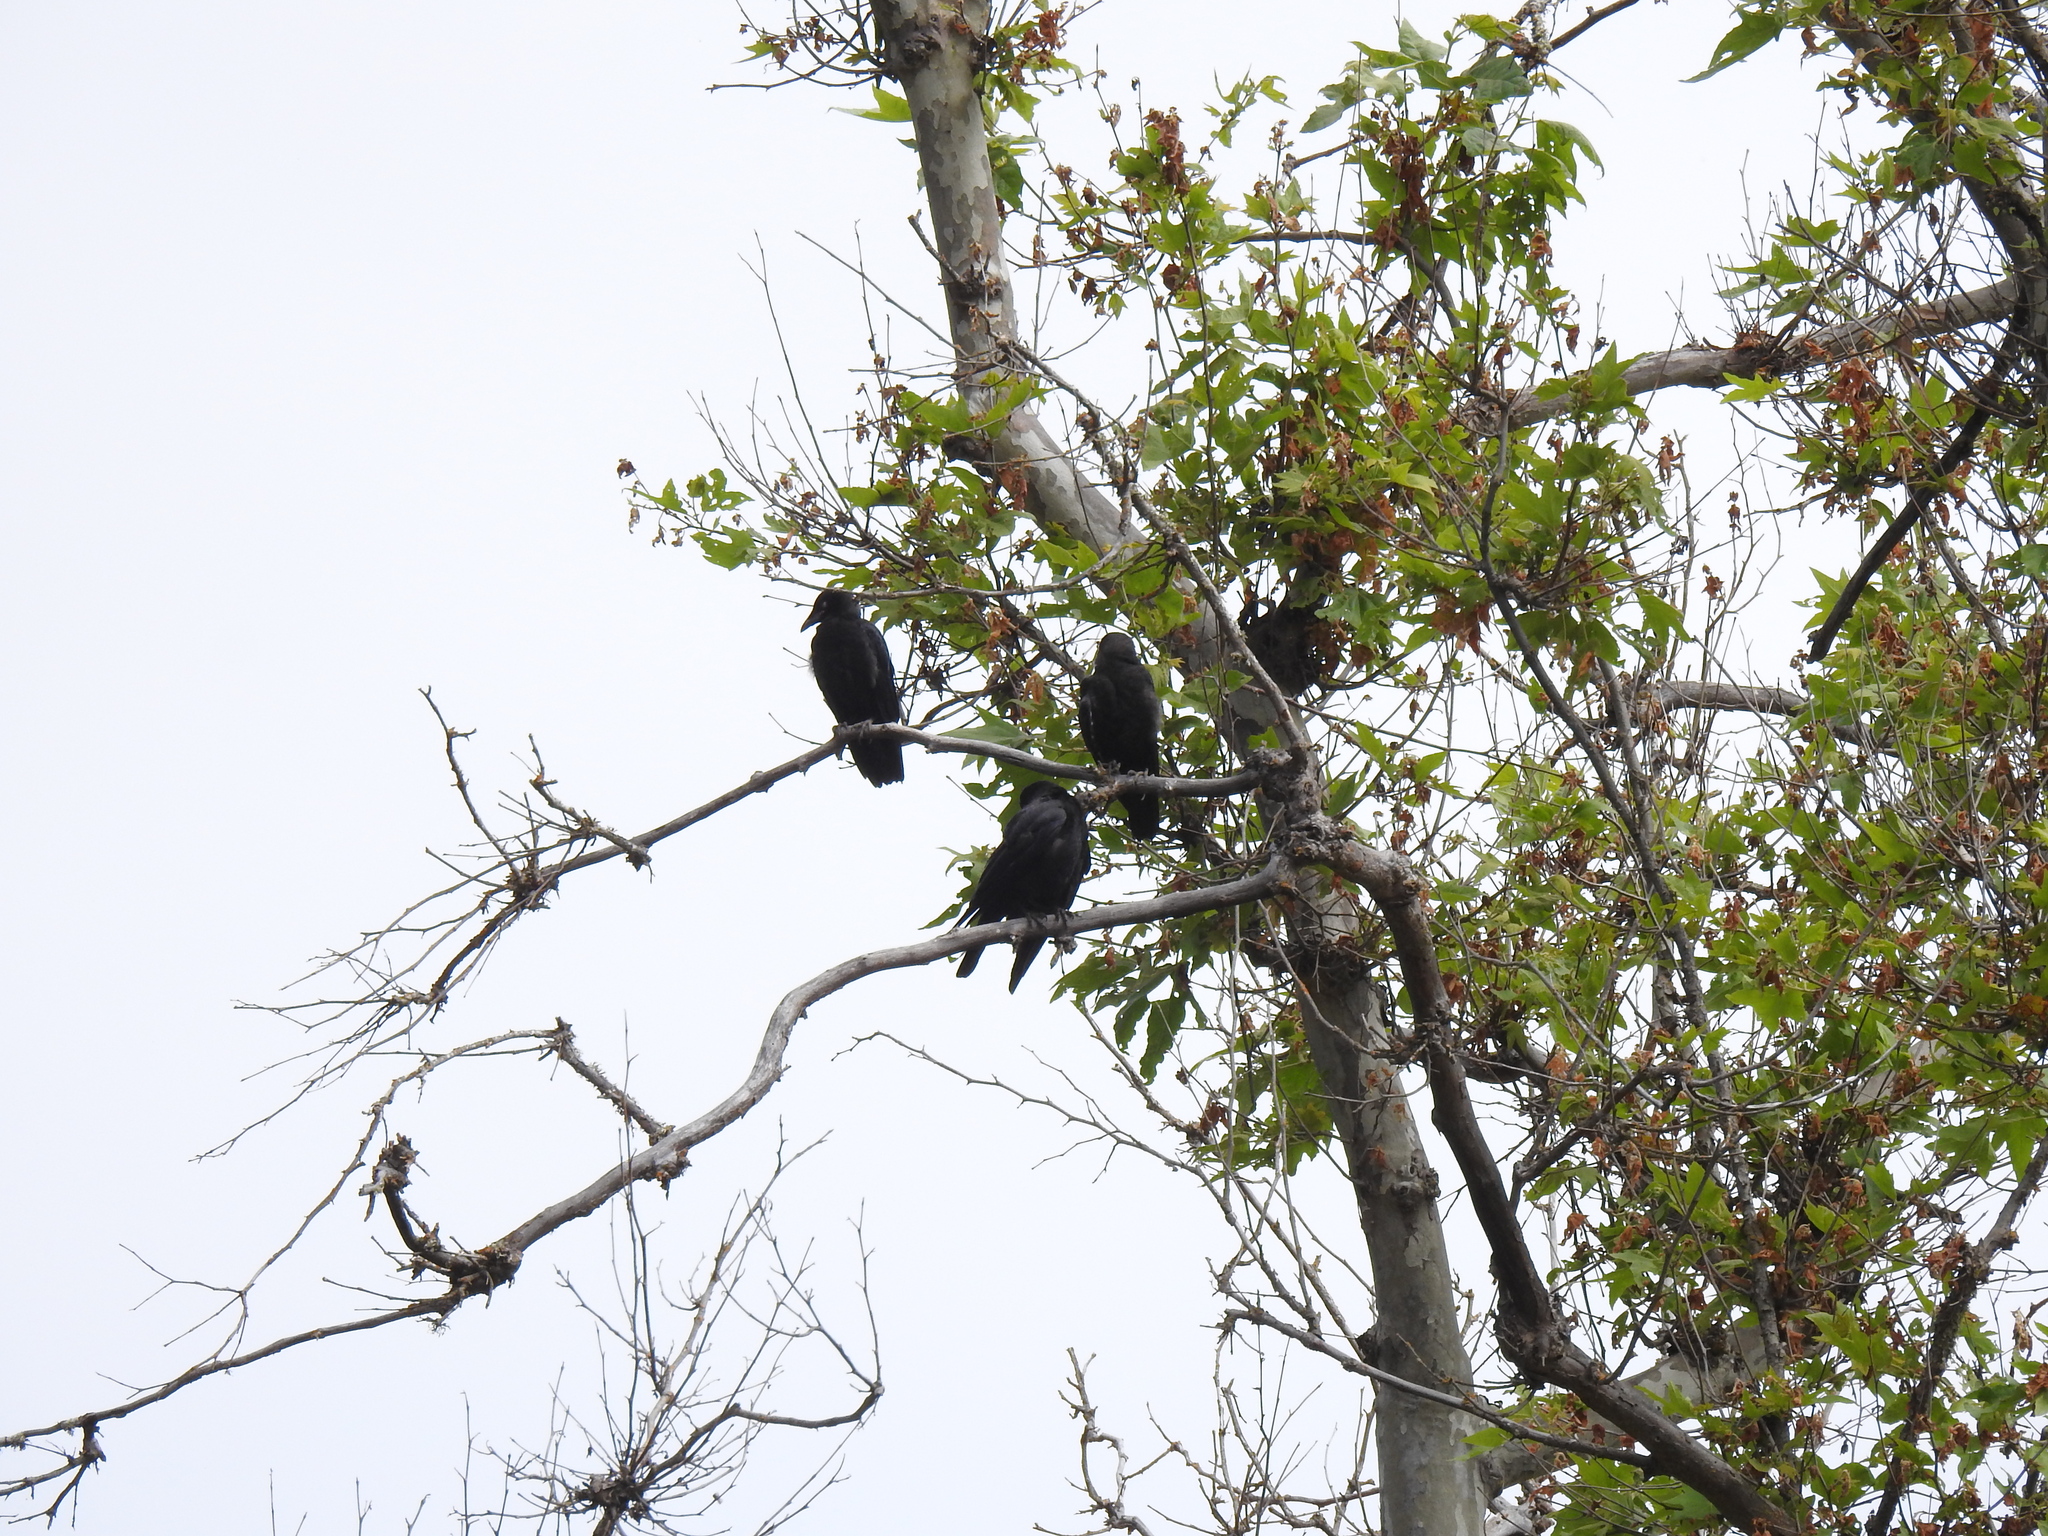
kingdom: Animalia
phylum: Chordata
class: Aves
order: Passeriformes
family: Corvidae
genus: Corvus
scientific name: Corvus brachyrhynchos
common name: American crow
